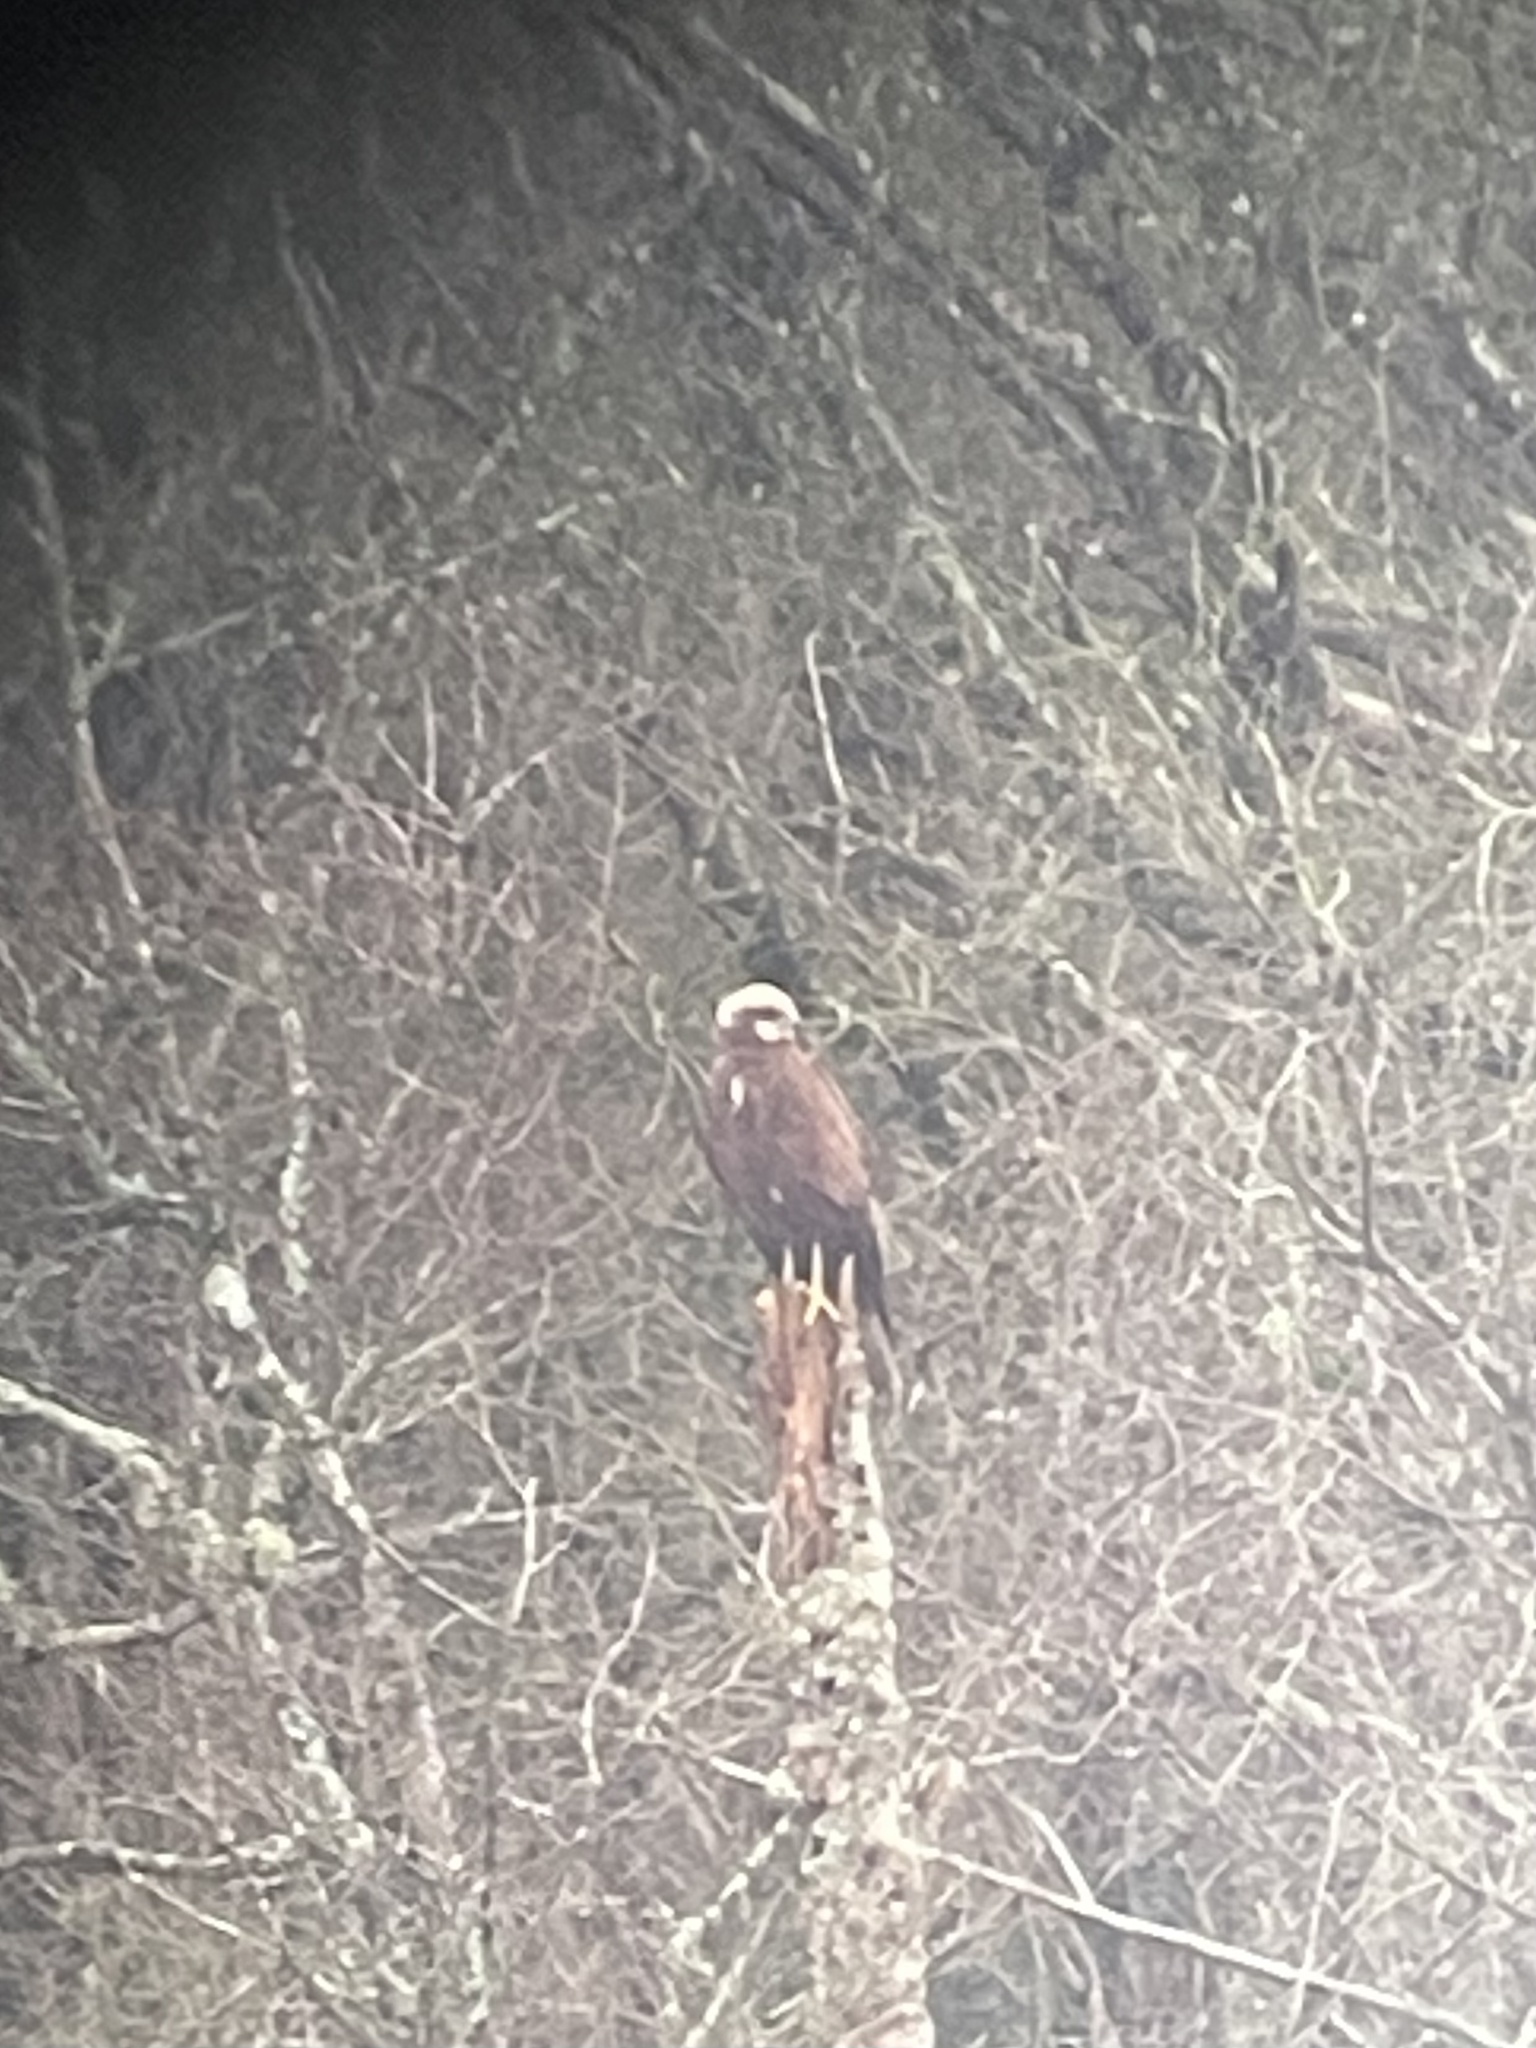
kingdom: Animalia
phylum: Chordata
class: Aves
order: Accipitriformes
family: Accipitridae
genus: Circus
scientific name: Circus aeruginosus
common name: Western marsh harrier
